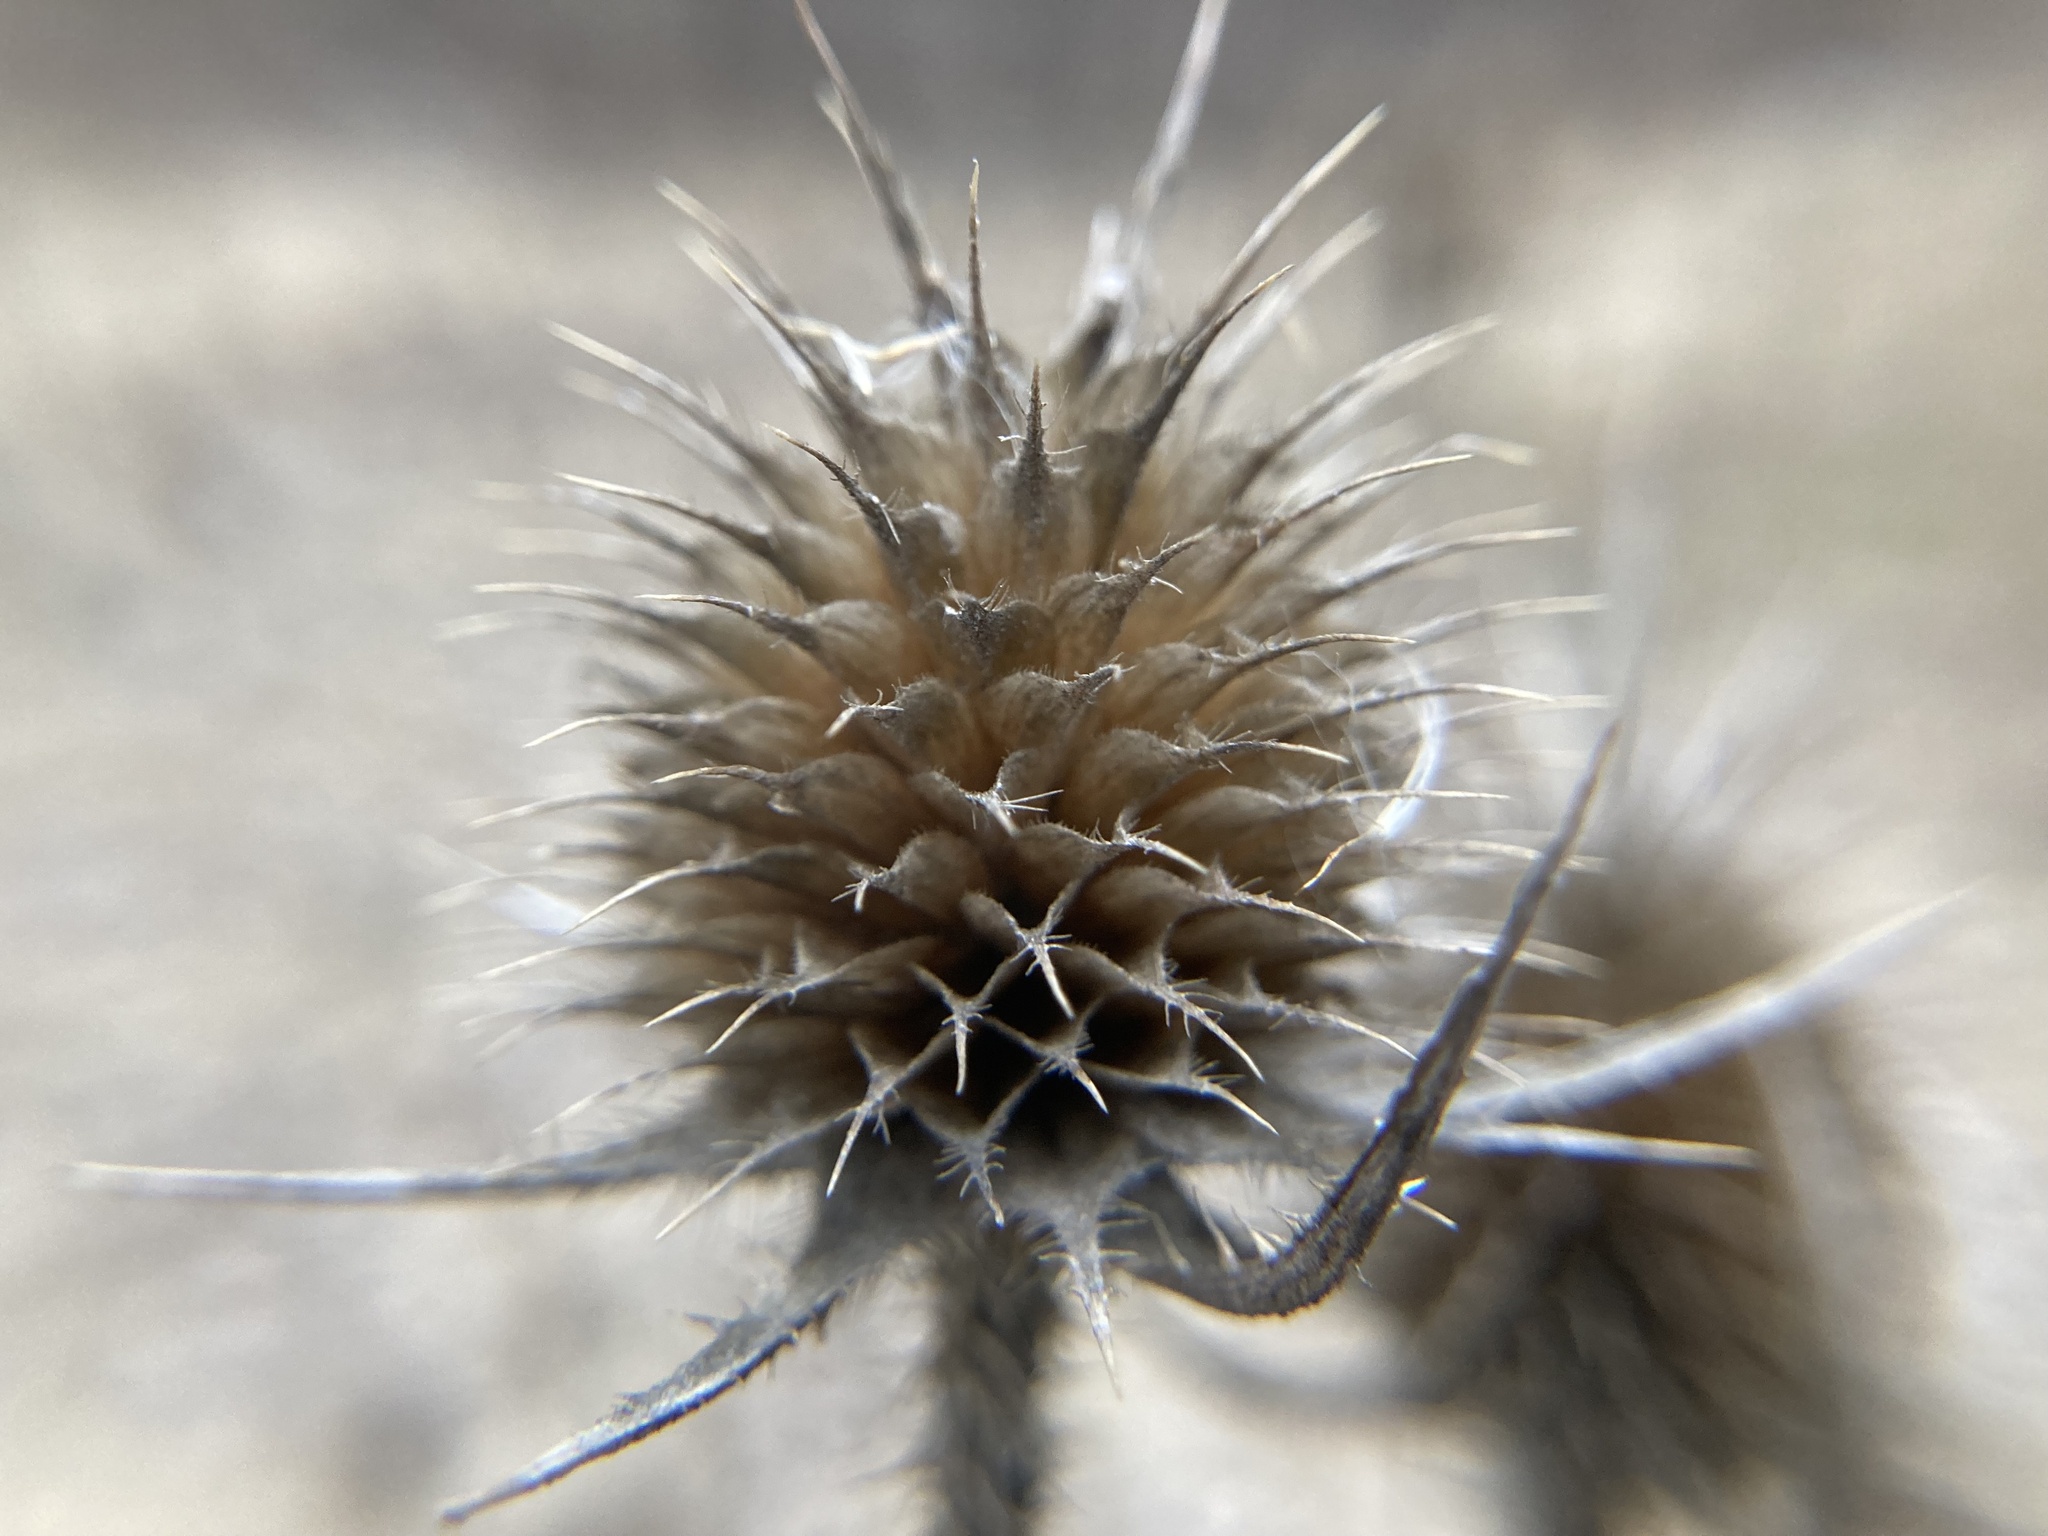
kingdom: Plantae
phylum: Tracheophyta
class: Magnoliopsida
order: Dipsacales
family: Caprifoliaceae
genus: Dipsacus
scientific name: Dipsacus laciniatus
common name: Cut-leaved teasel
